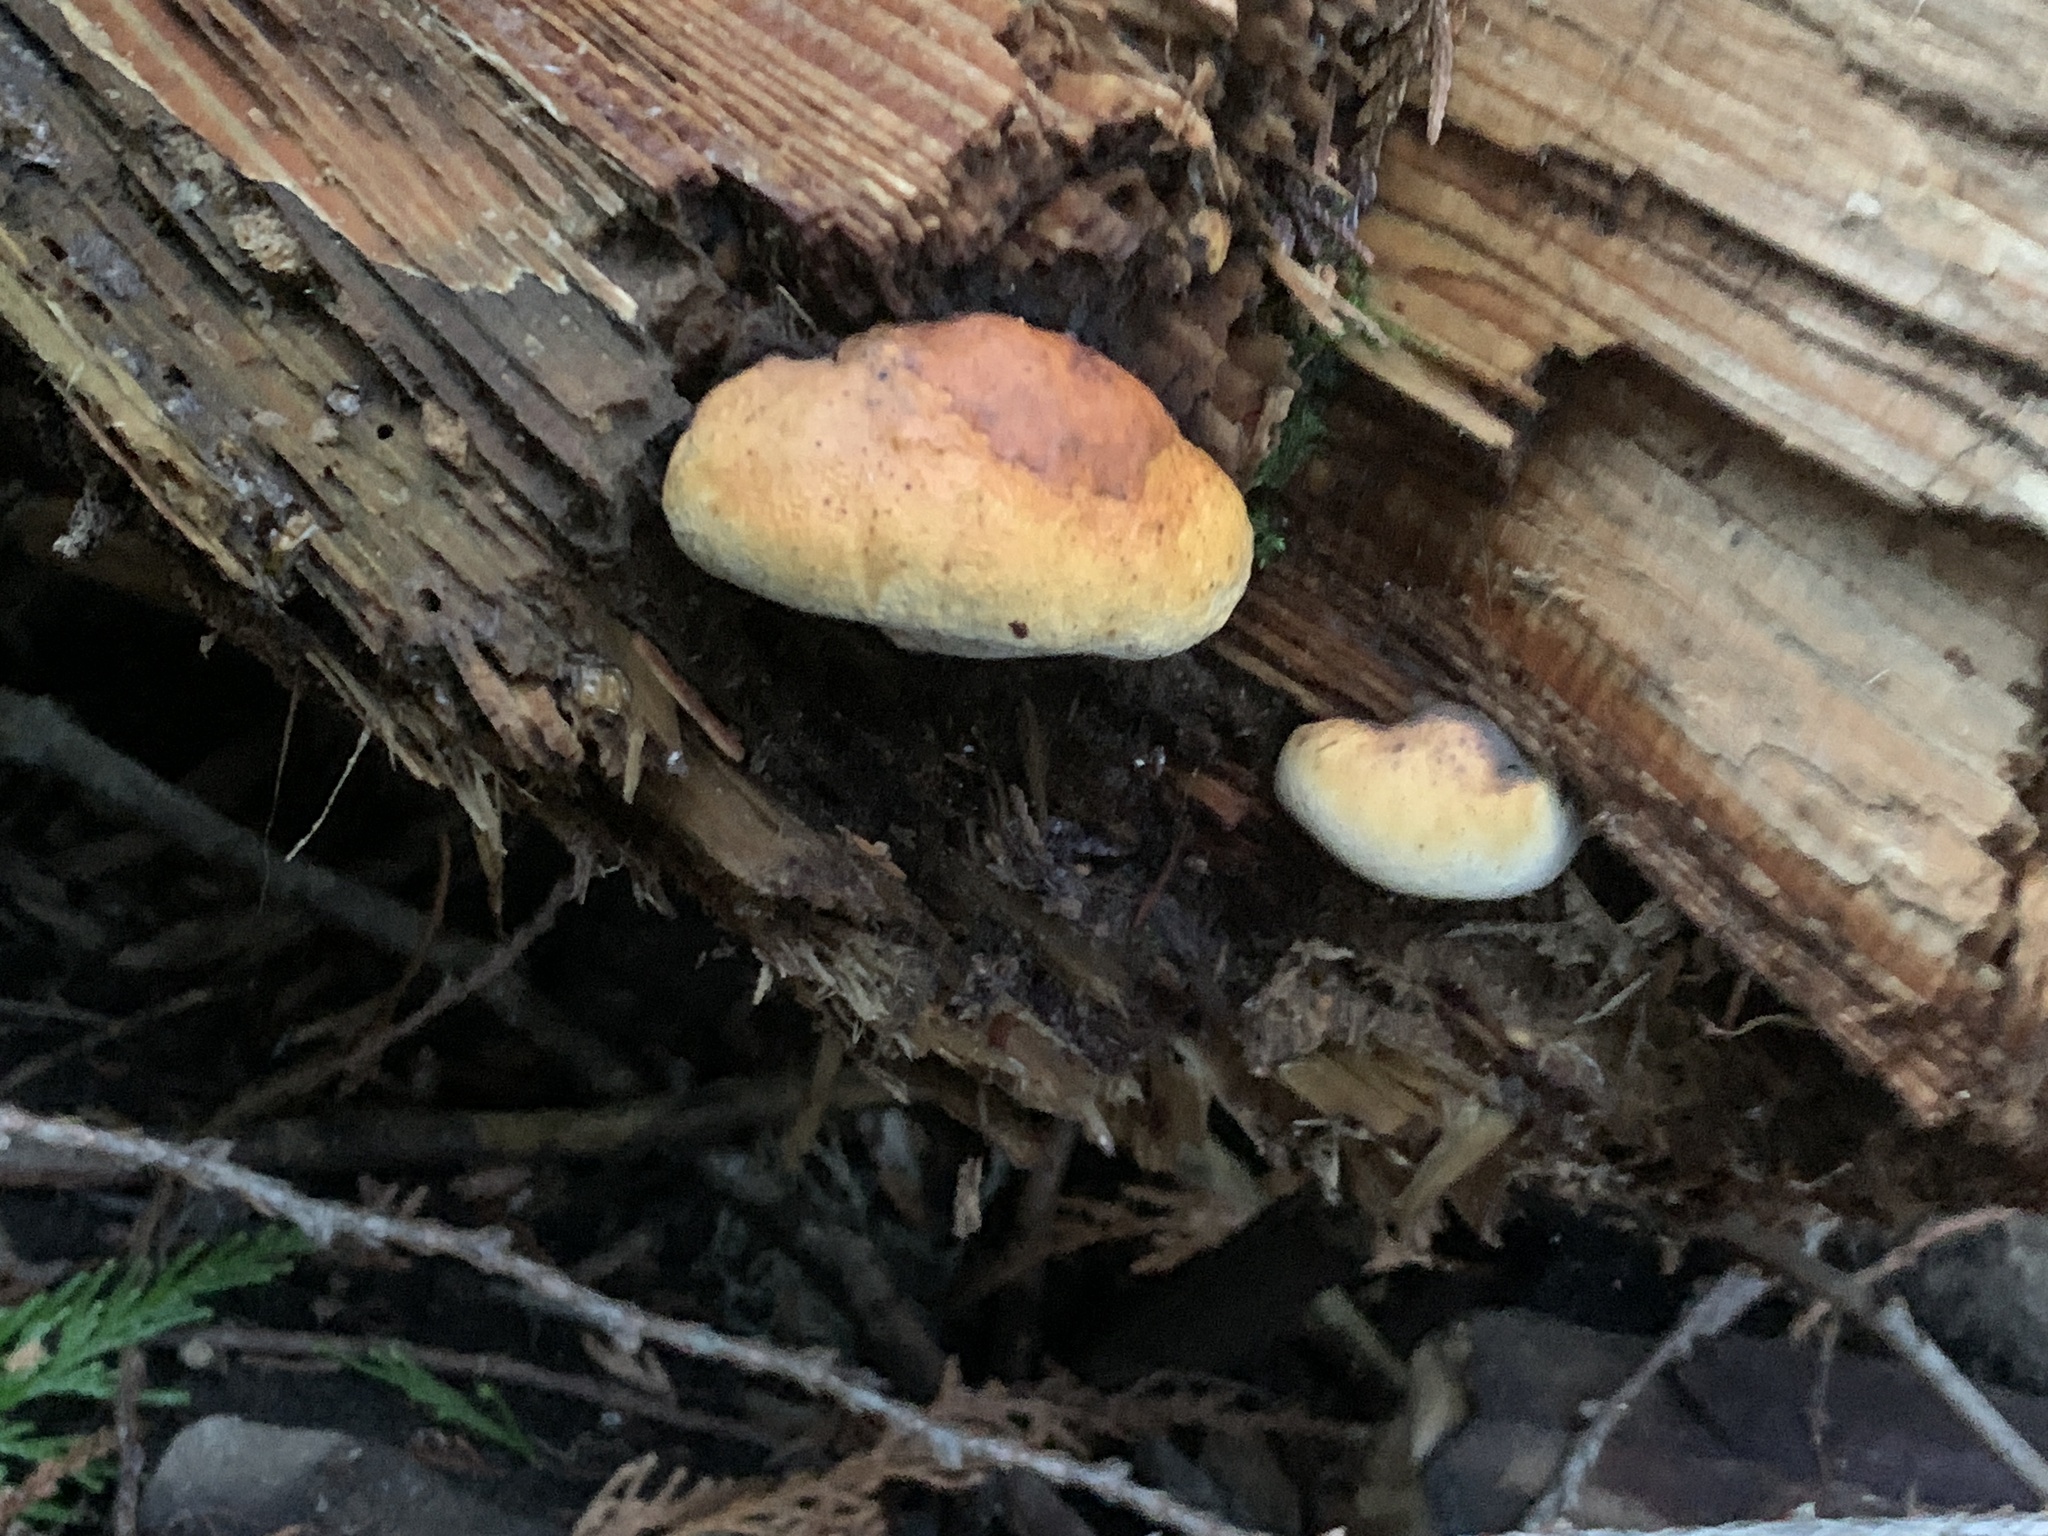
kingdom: Fungi
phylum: Basidiomycota
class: Agaricomycetes
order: Polyporales
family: Fomitopsidaceae
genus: Fomitopsis
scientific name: Fomitopsis mounceae
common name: Northern red belt
